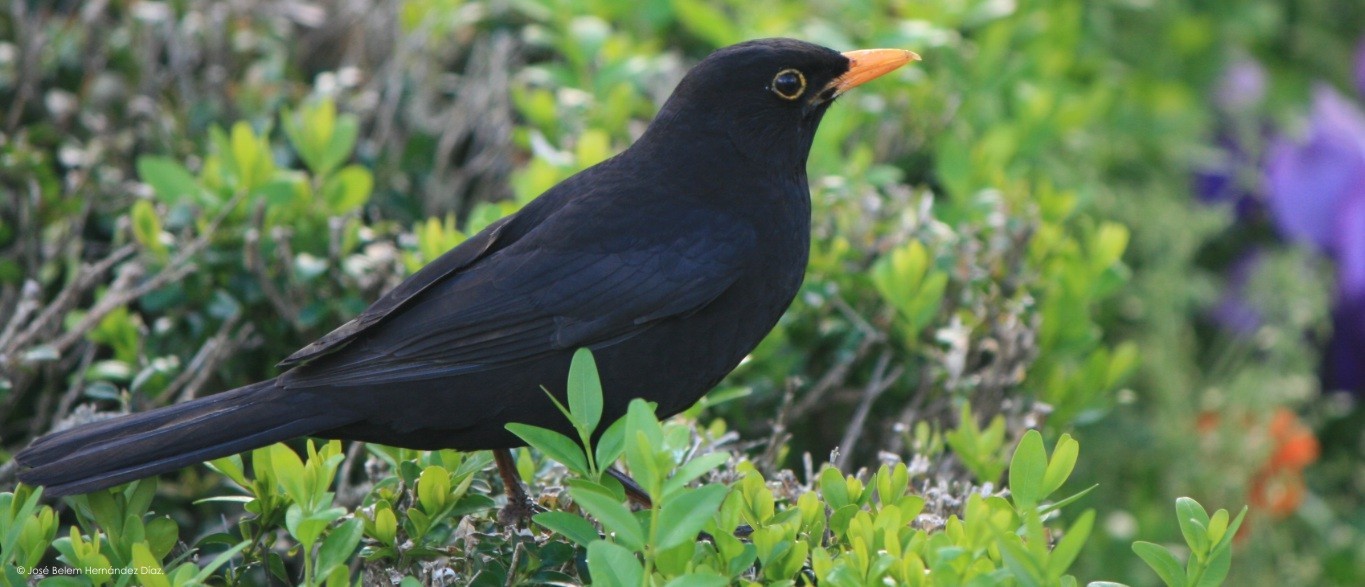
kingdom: Animalia
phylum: Chordata
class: Aves
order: Passeriformes
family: Turdidae
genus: Turdus
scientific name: Turdus merula
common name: Common blackbird
